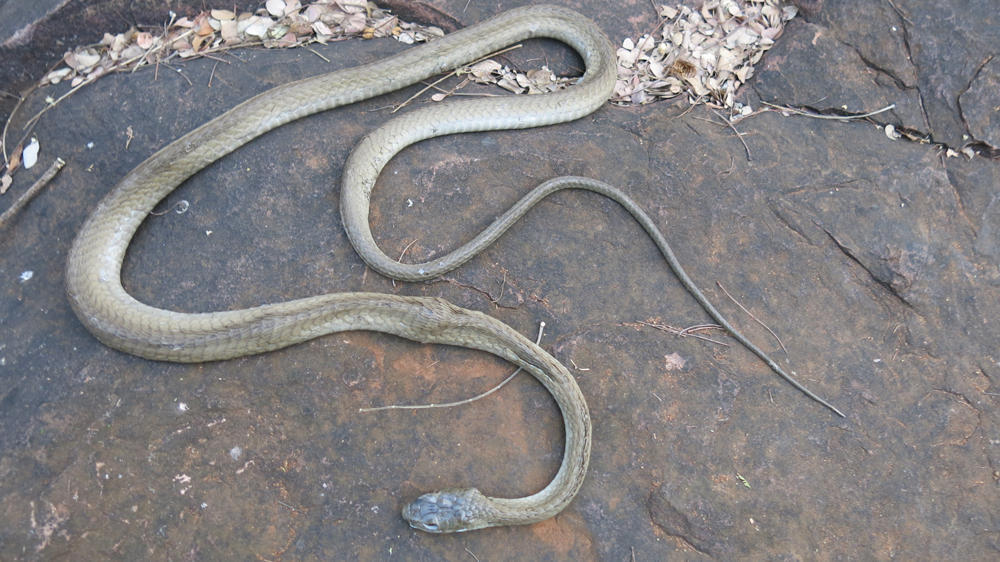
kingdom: Animalia
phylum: Chordata
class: Squamata
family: Colubridae
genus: Dispholidus
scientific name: Dispholidus typus
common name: Boomslang
